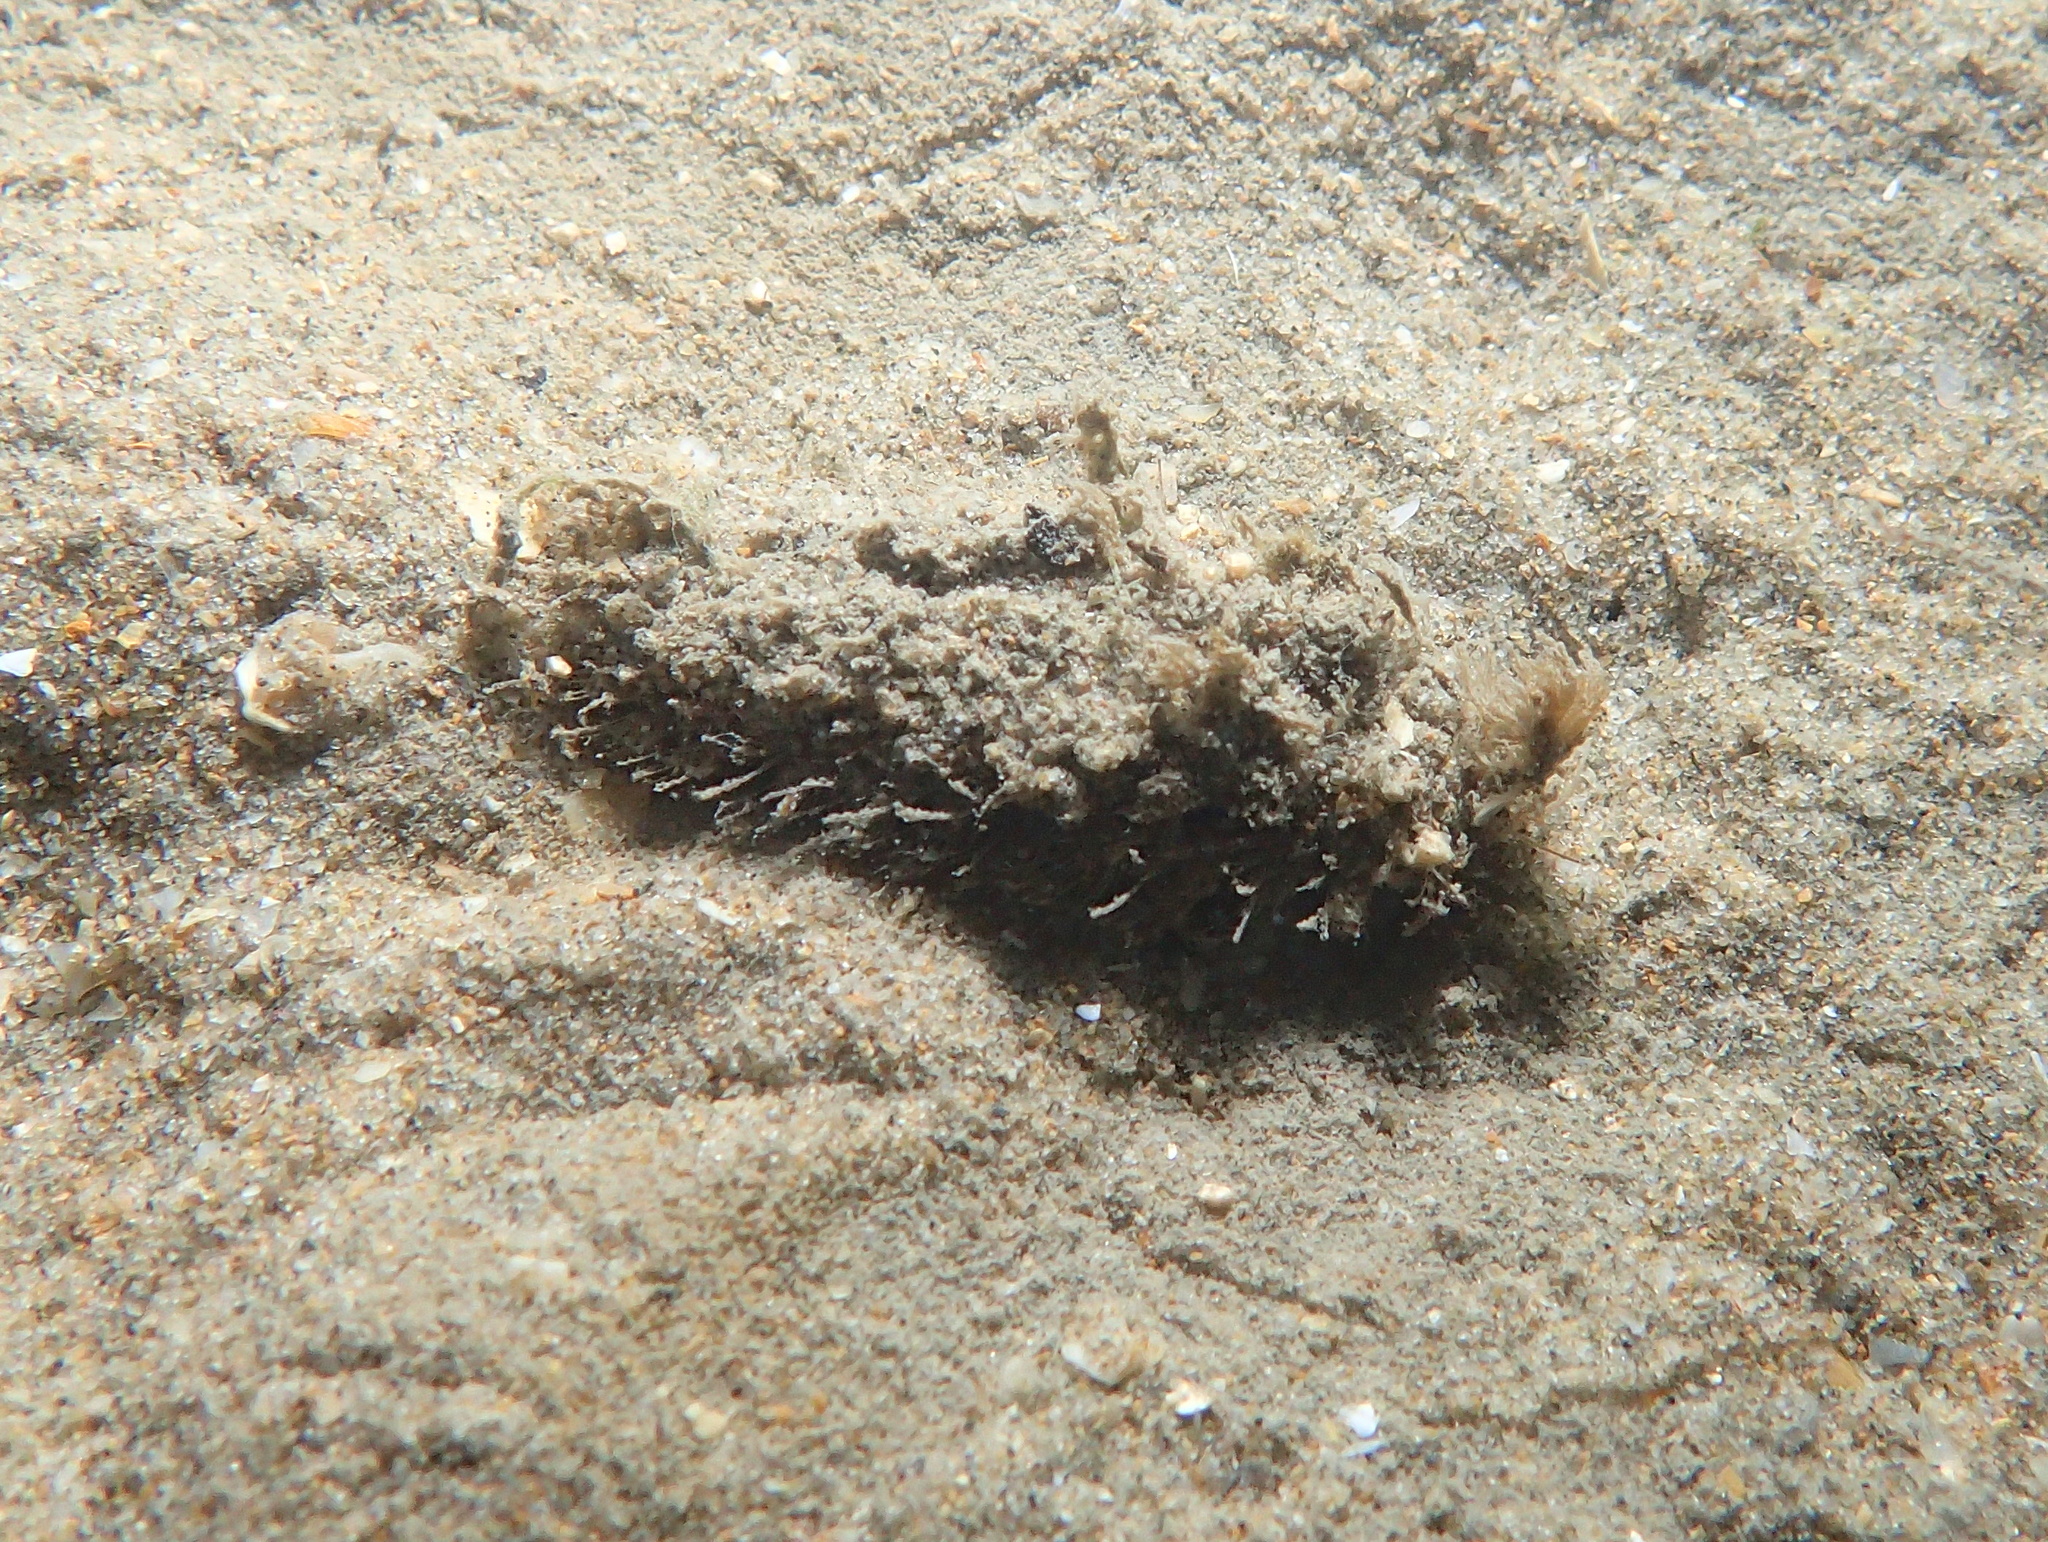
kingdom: Animalia
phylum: Annelida
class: Polychaeta
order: Phyllodocida
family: Aphroditidae
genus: Aphrodita
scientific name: Aphrodita aculeata
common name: Sea mouse
